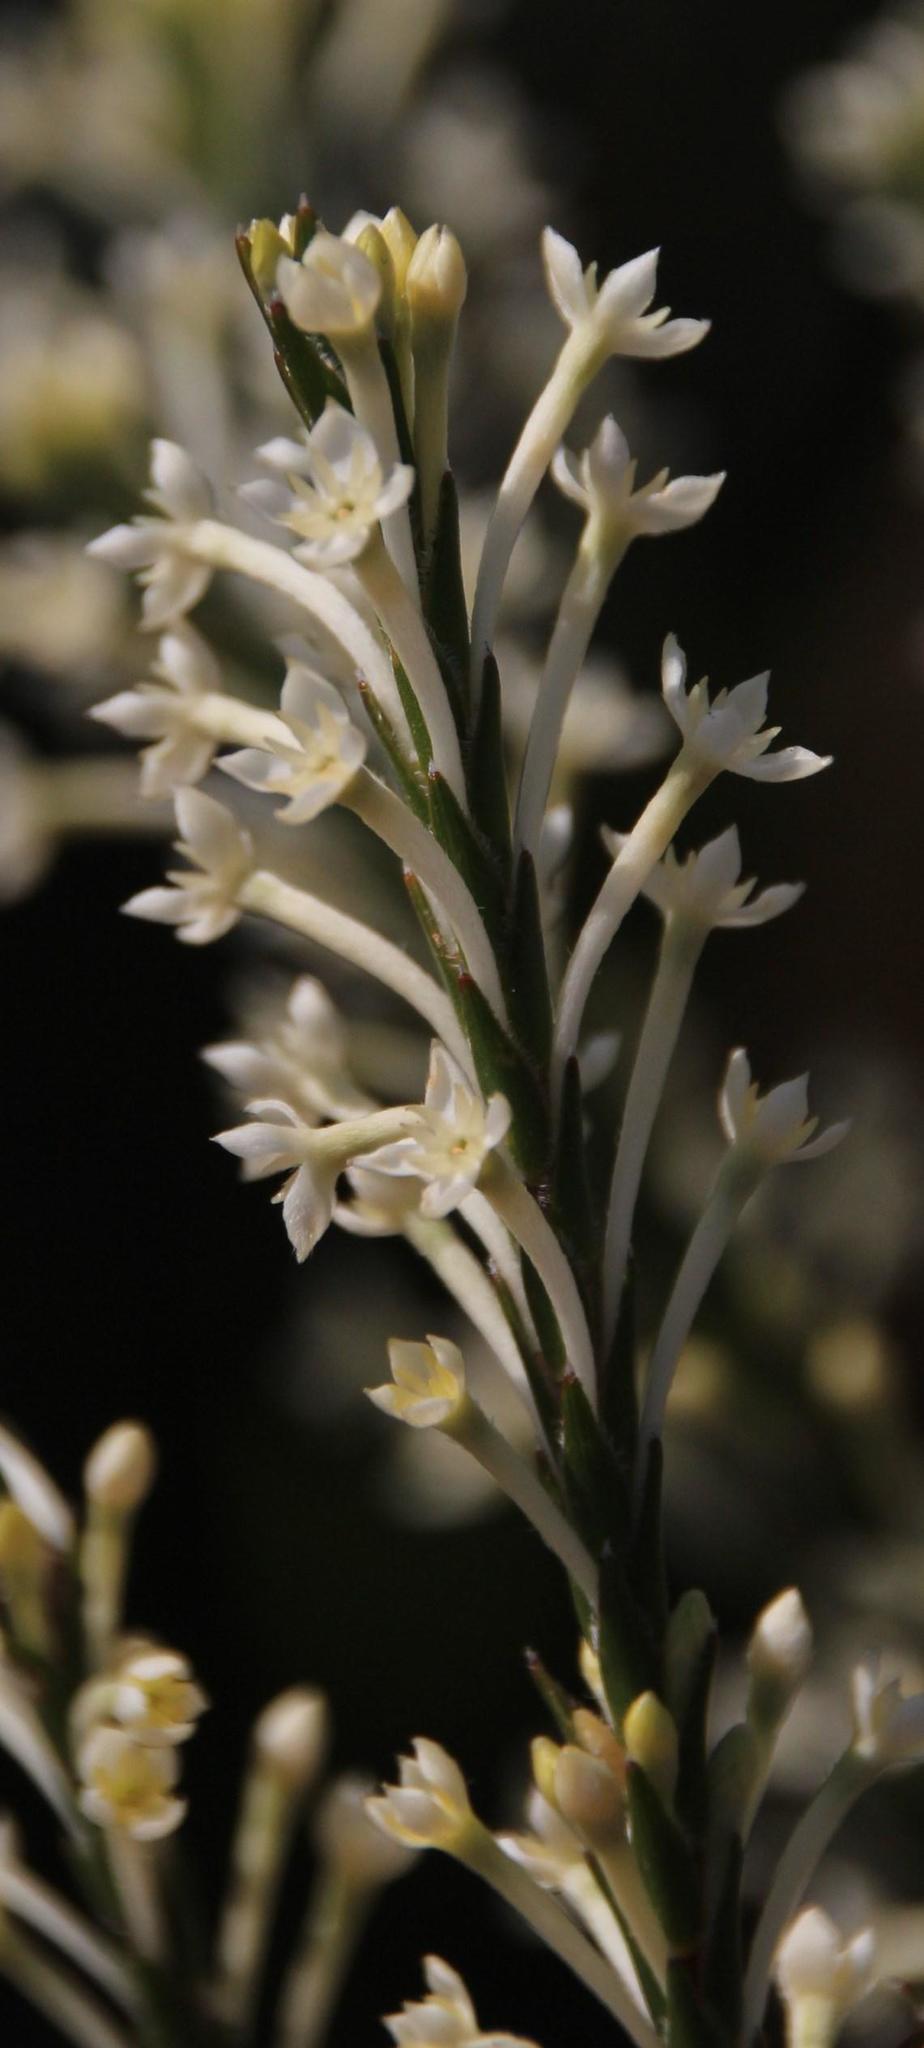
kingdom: Plantae
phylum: Tracheophyta
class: Magnoliopsida
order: Malvales
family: Thymelaeaceae
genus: Struthiola
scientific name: Struthiola myrsinites
